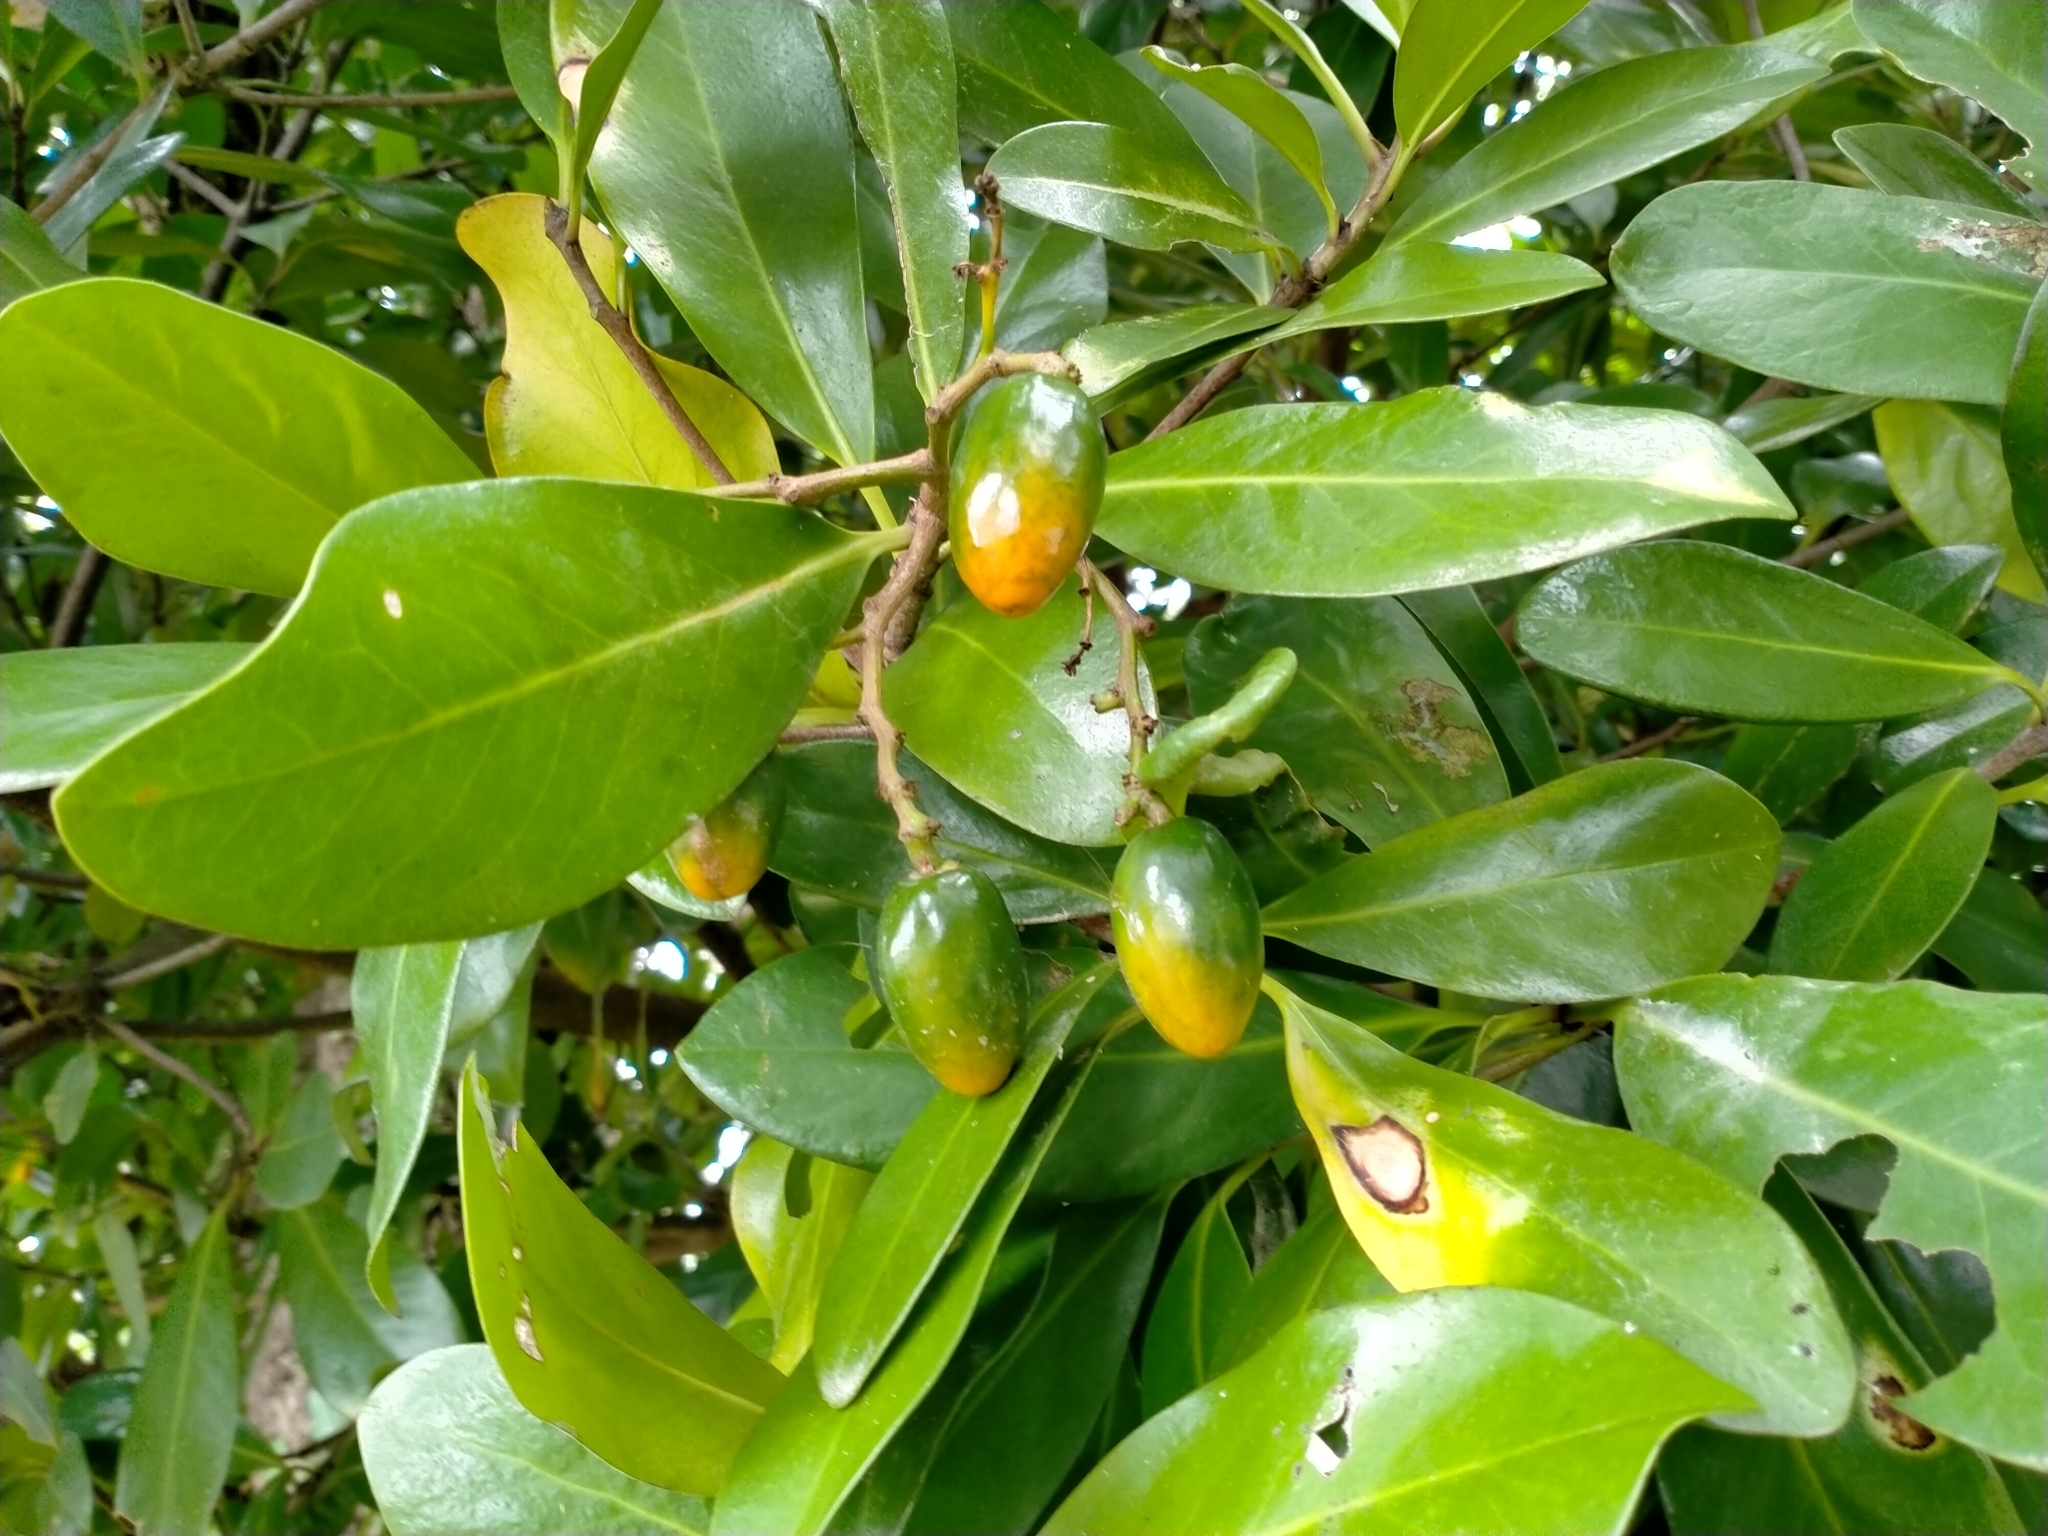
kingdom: Plantae
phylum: Tracheophyta
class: Magnoliopsida
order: Cucurbitales
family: Corynocarpaceae
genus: Corynocarpus
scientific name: Corynocarpus laevigatus
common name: New zealand laurel
